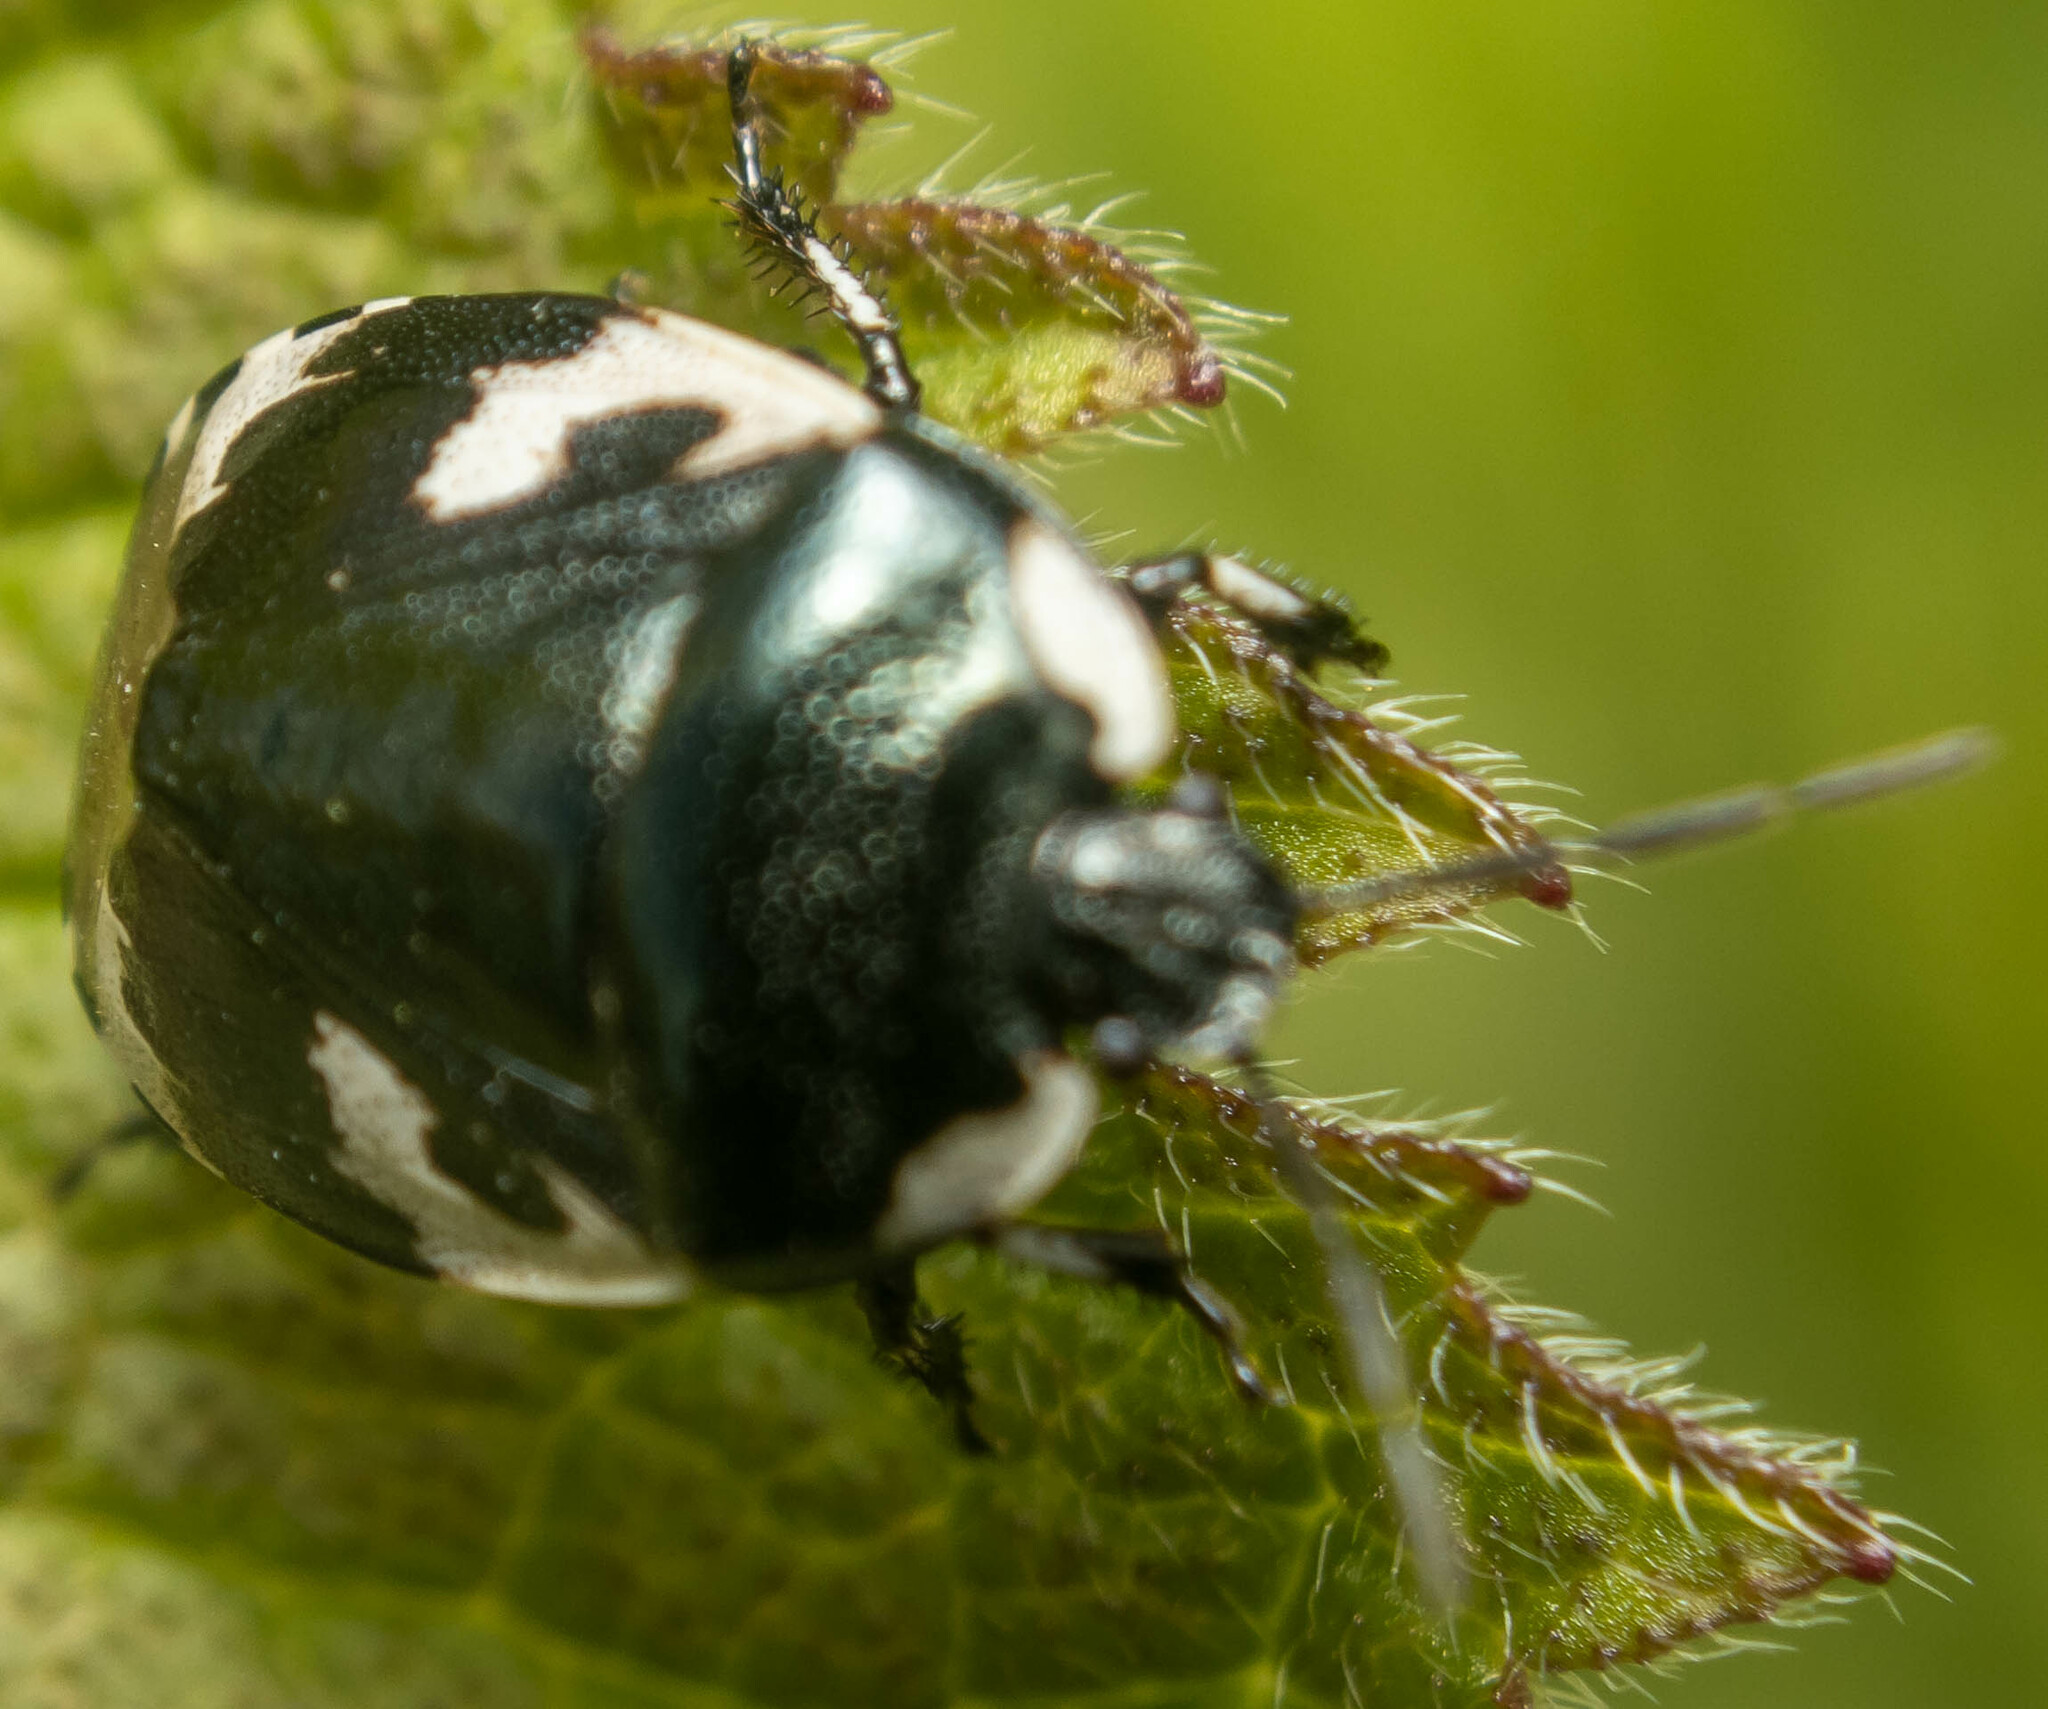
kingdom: Animalia
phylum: Arthropoda
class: Insecta
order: Hemiptera
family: Cydnidae
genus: Tritomegas
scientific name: Tritomegas bicolor
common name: Pied shieldbug
